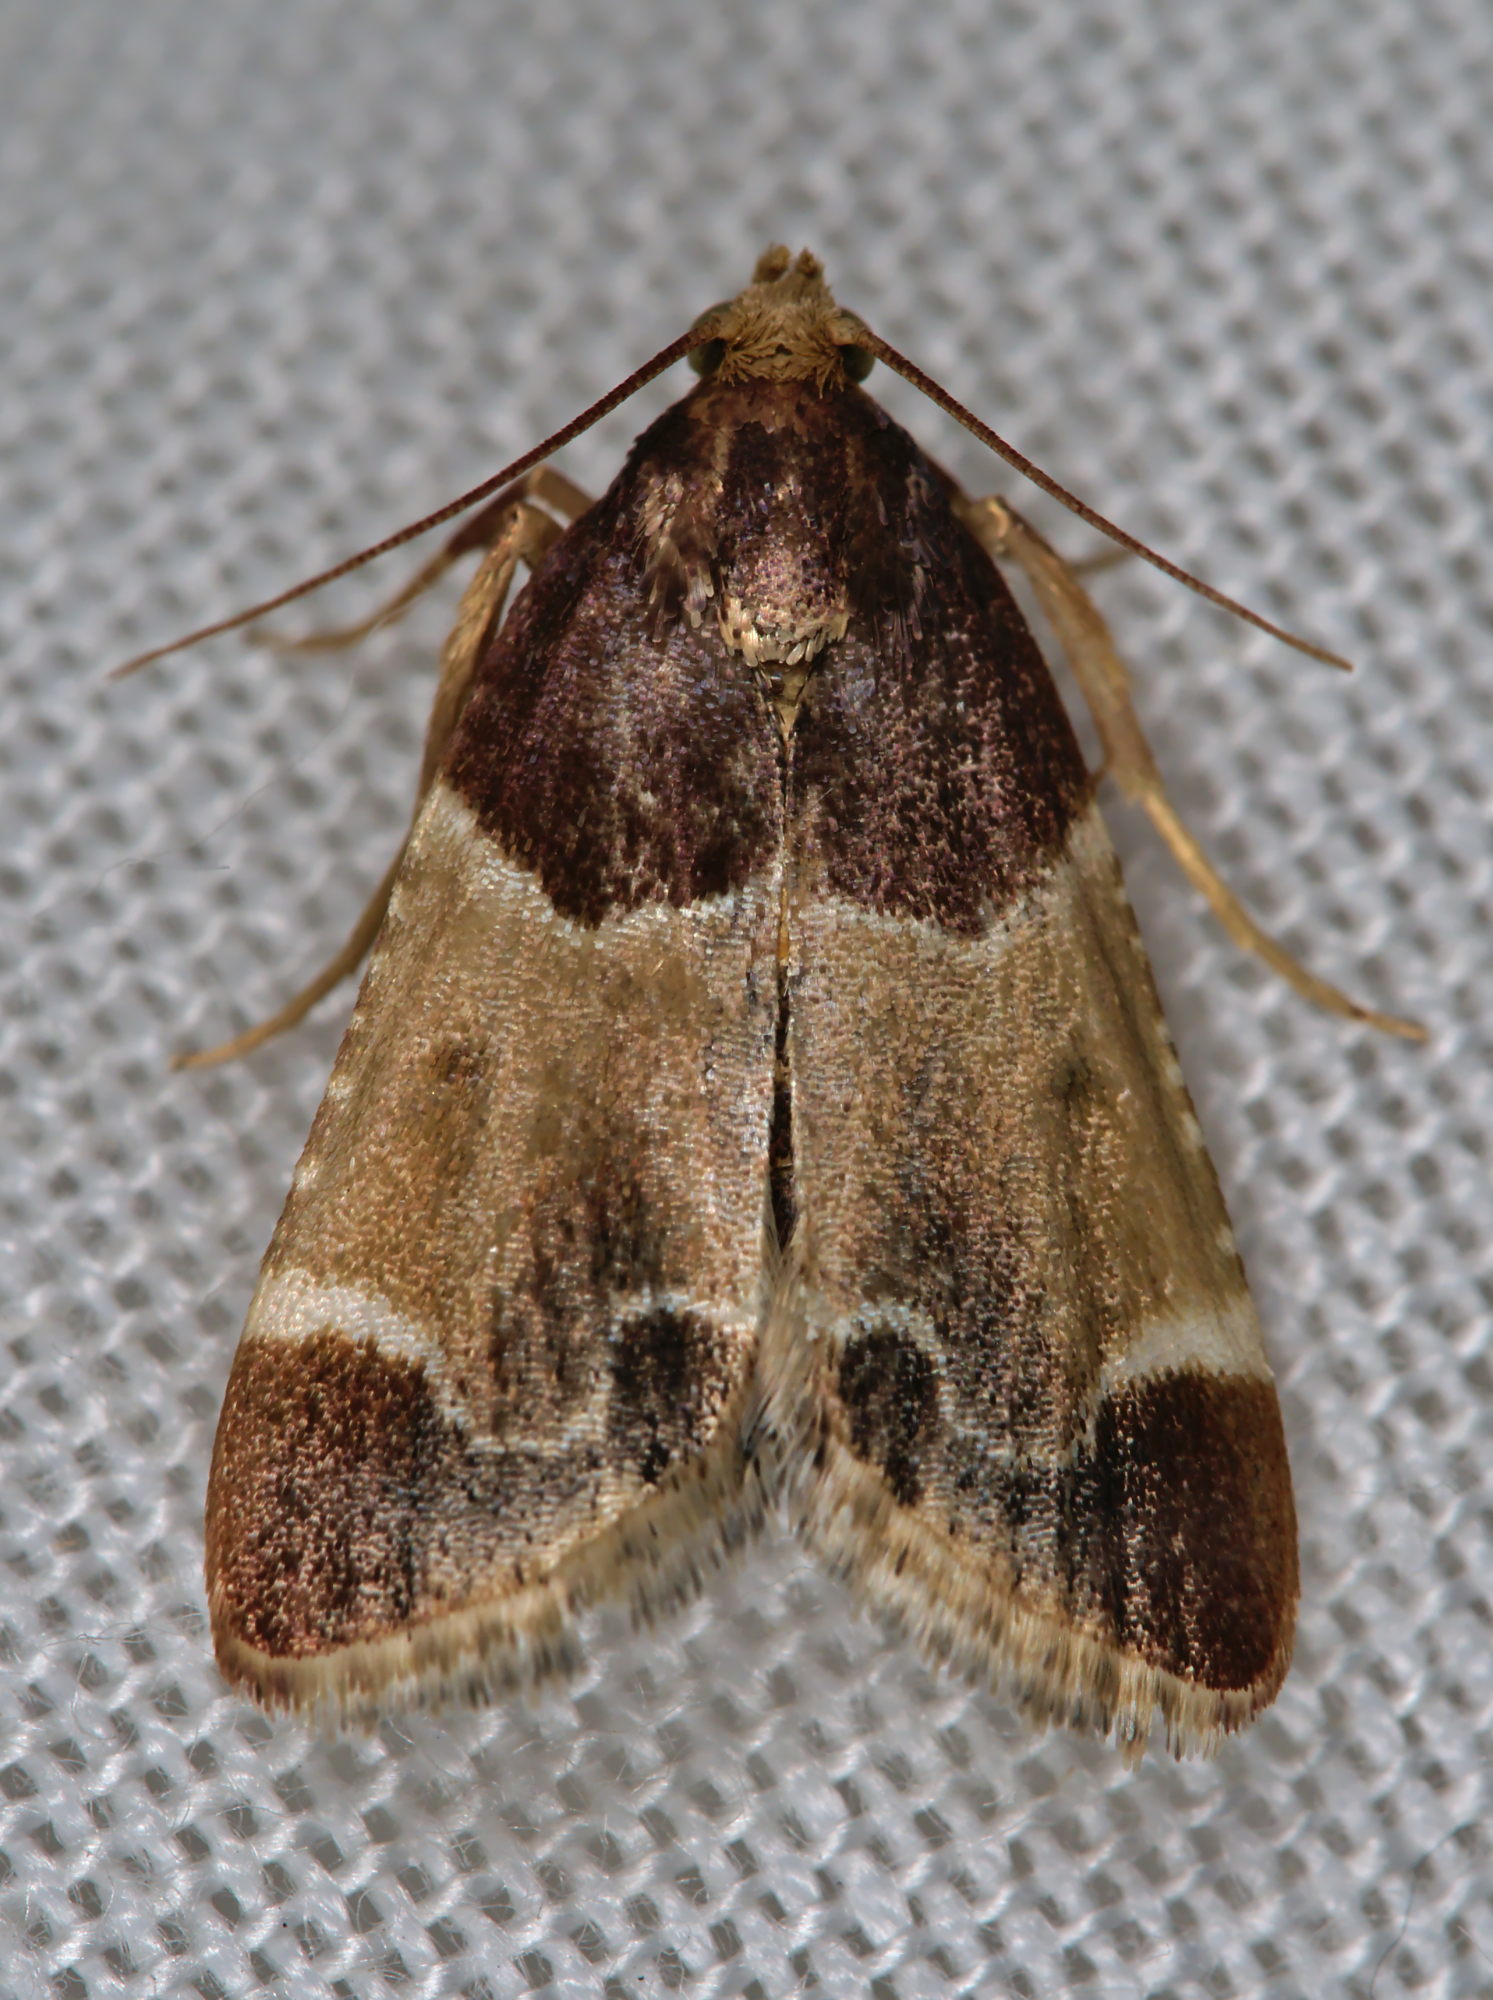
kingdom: Animalia
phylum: Arthropoda
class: Insecta
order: Lepidoptera
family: Pyralidae
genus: Pyralis
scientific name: Pyralis farinalis
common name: Meal moth
